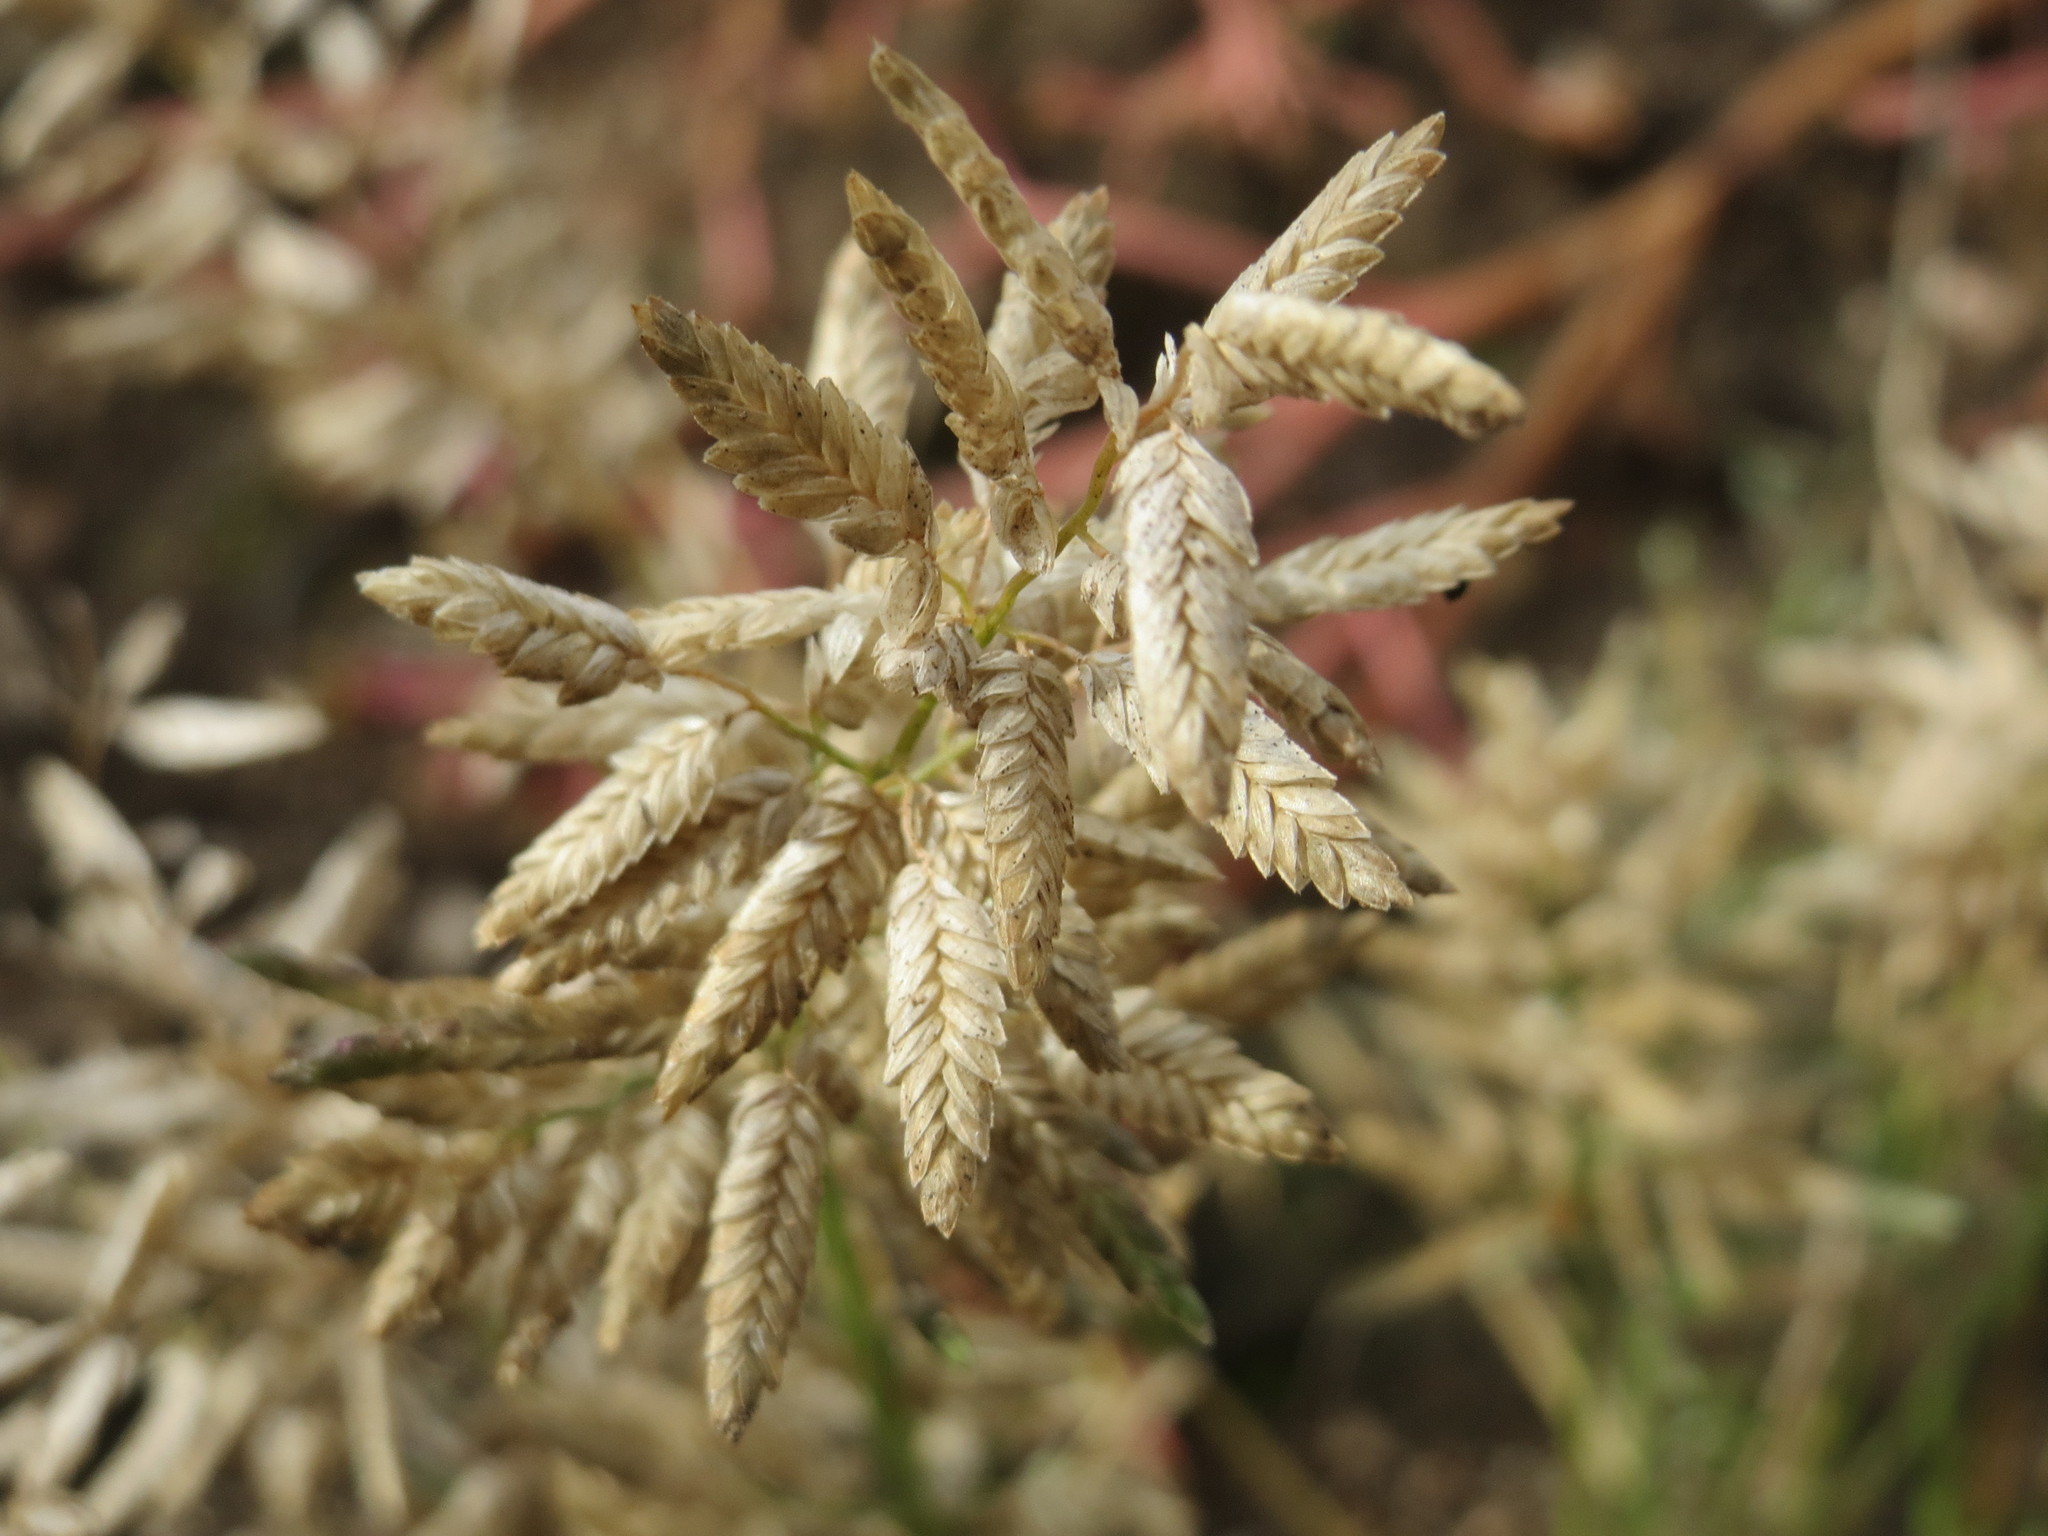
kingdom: Plantae
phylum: Tracheophyta
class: Liliopsida
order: Poales
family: Poaceae
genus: Eragrostis
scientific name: Eragrostis minor
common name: Small love-grass
